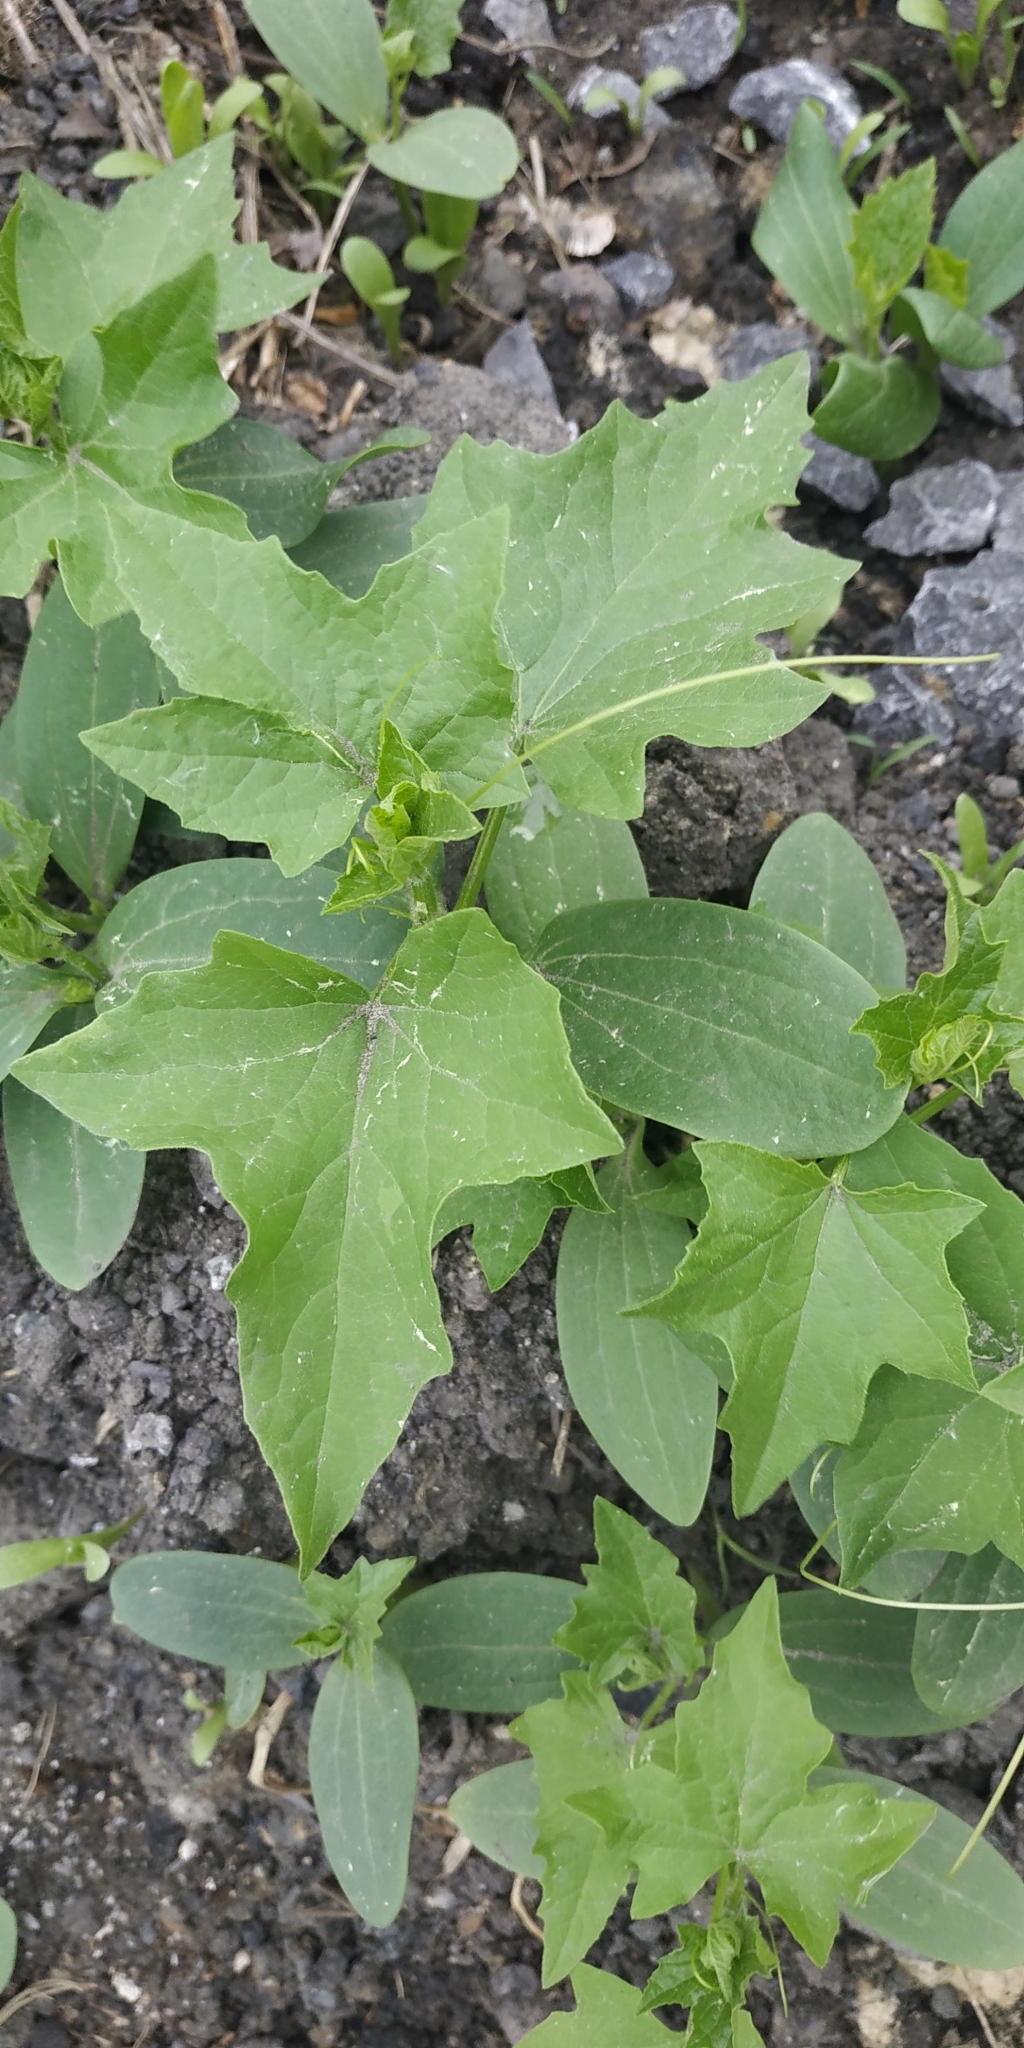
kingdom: Plantae
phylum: Tracheophyta
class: Magnoliopsida
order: Cucurbitales
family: Cucurbitaceae
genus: Echinocystis
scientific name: Echinocystis lobata
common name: Wild cucumber
